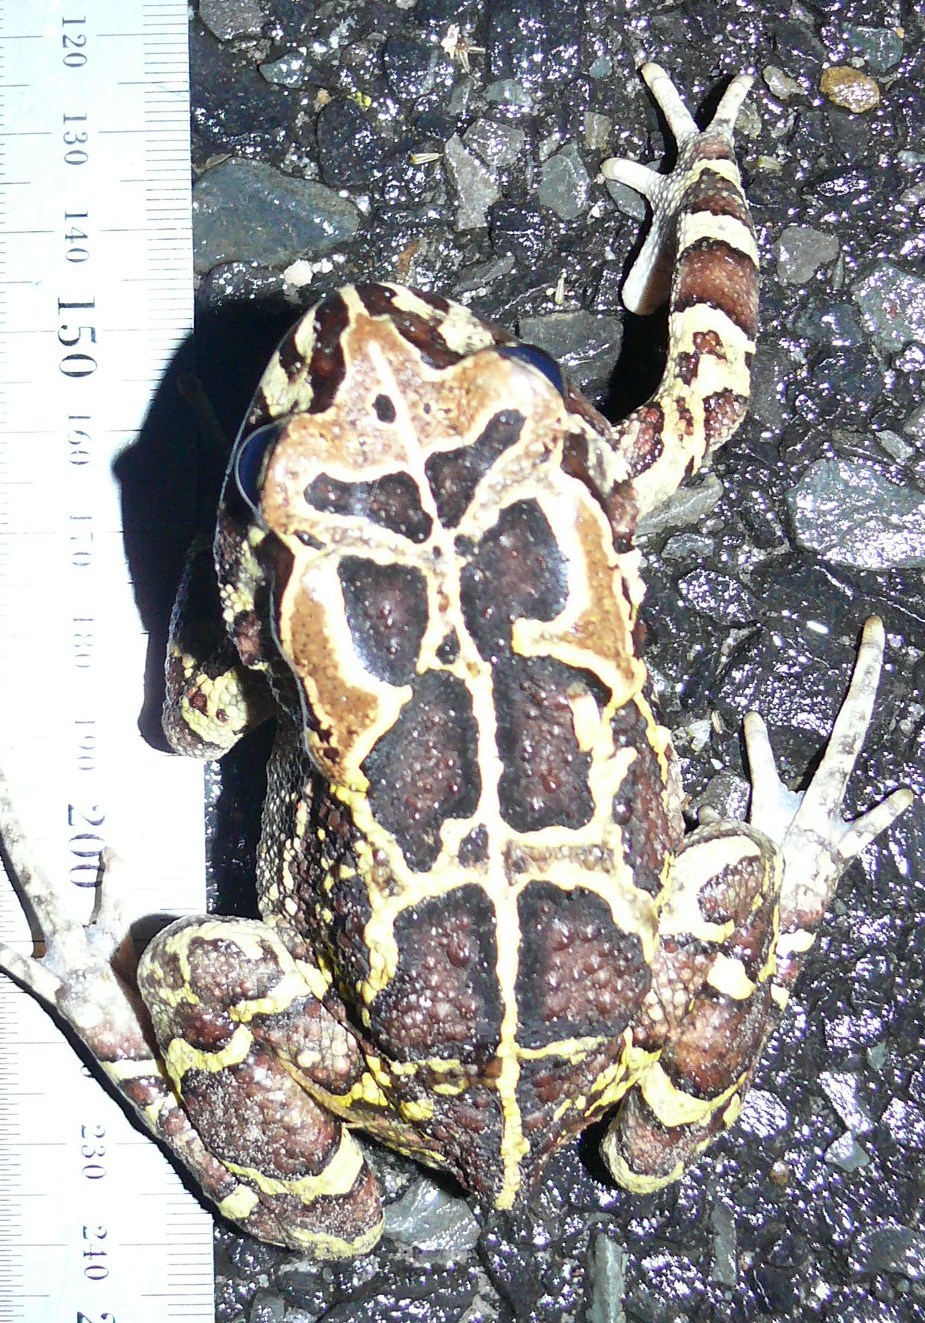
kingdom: Animalia
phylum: Chordata
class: Amphibia
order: Anura
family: Bufonidae
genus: Sclerophrys
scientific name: Sclerophrys pantherina
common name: Panther toad
